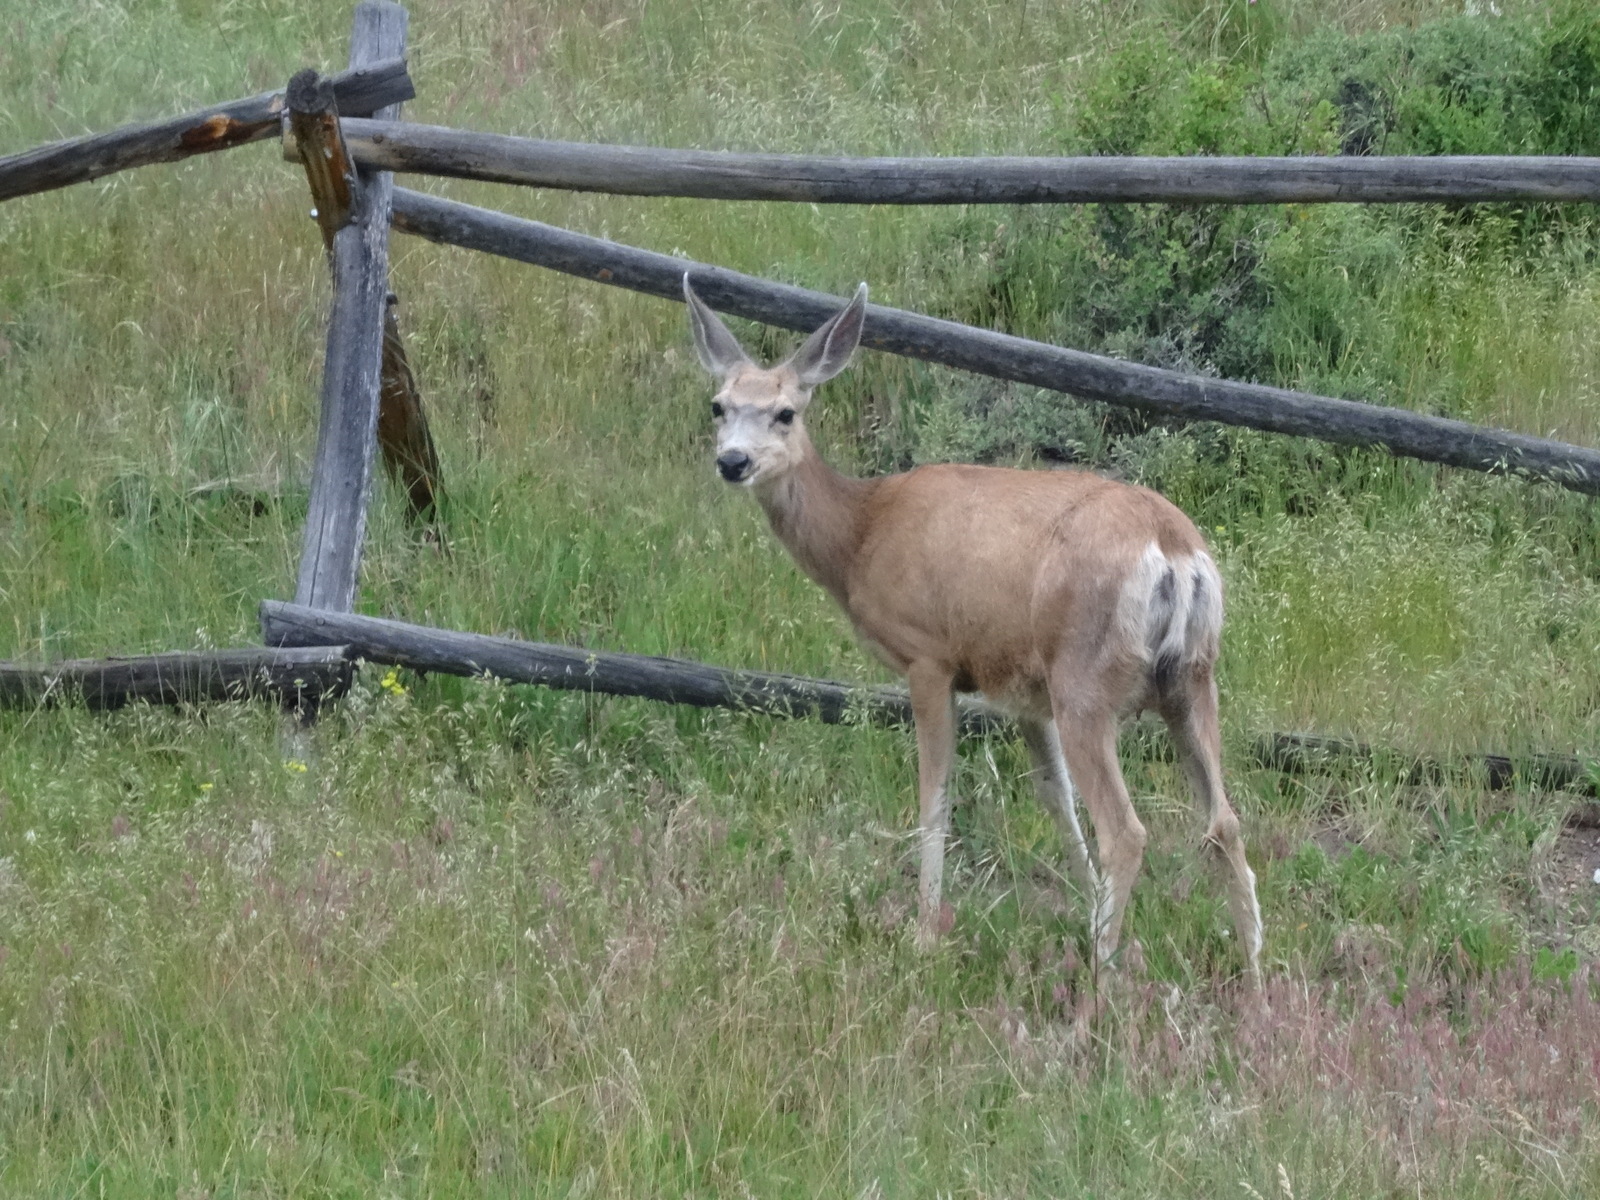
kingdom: Animalia
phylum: Chordata
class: Mammalia
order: Artiodactyla
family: Cervidae
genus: Odocoileus
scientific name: Odocoileus hemionus
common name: Mule deer
